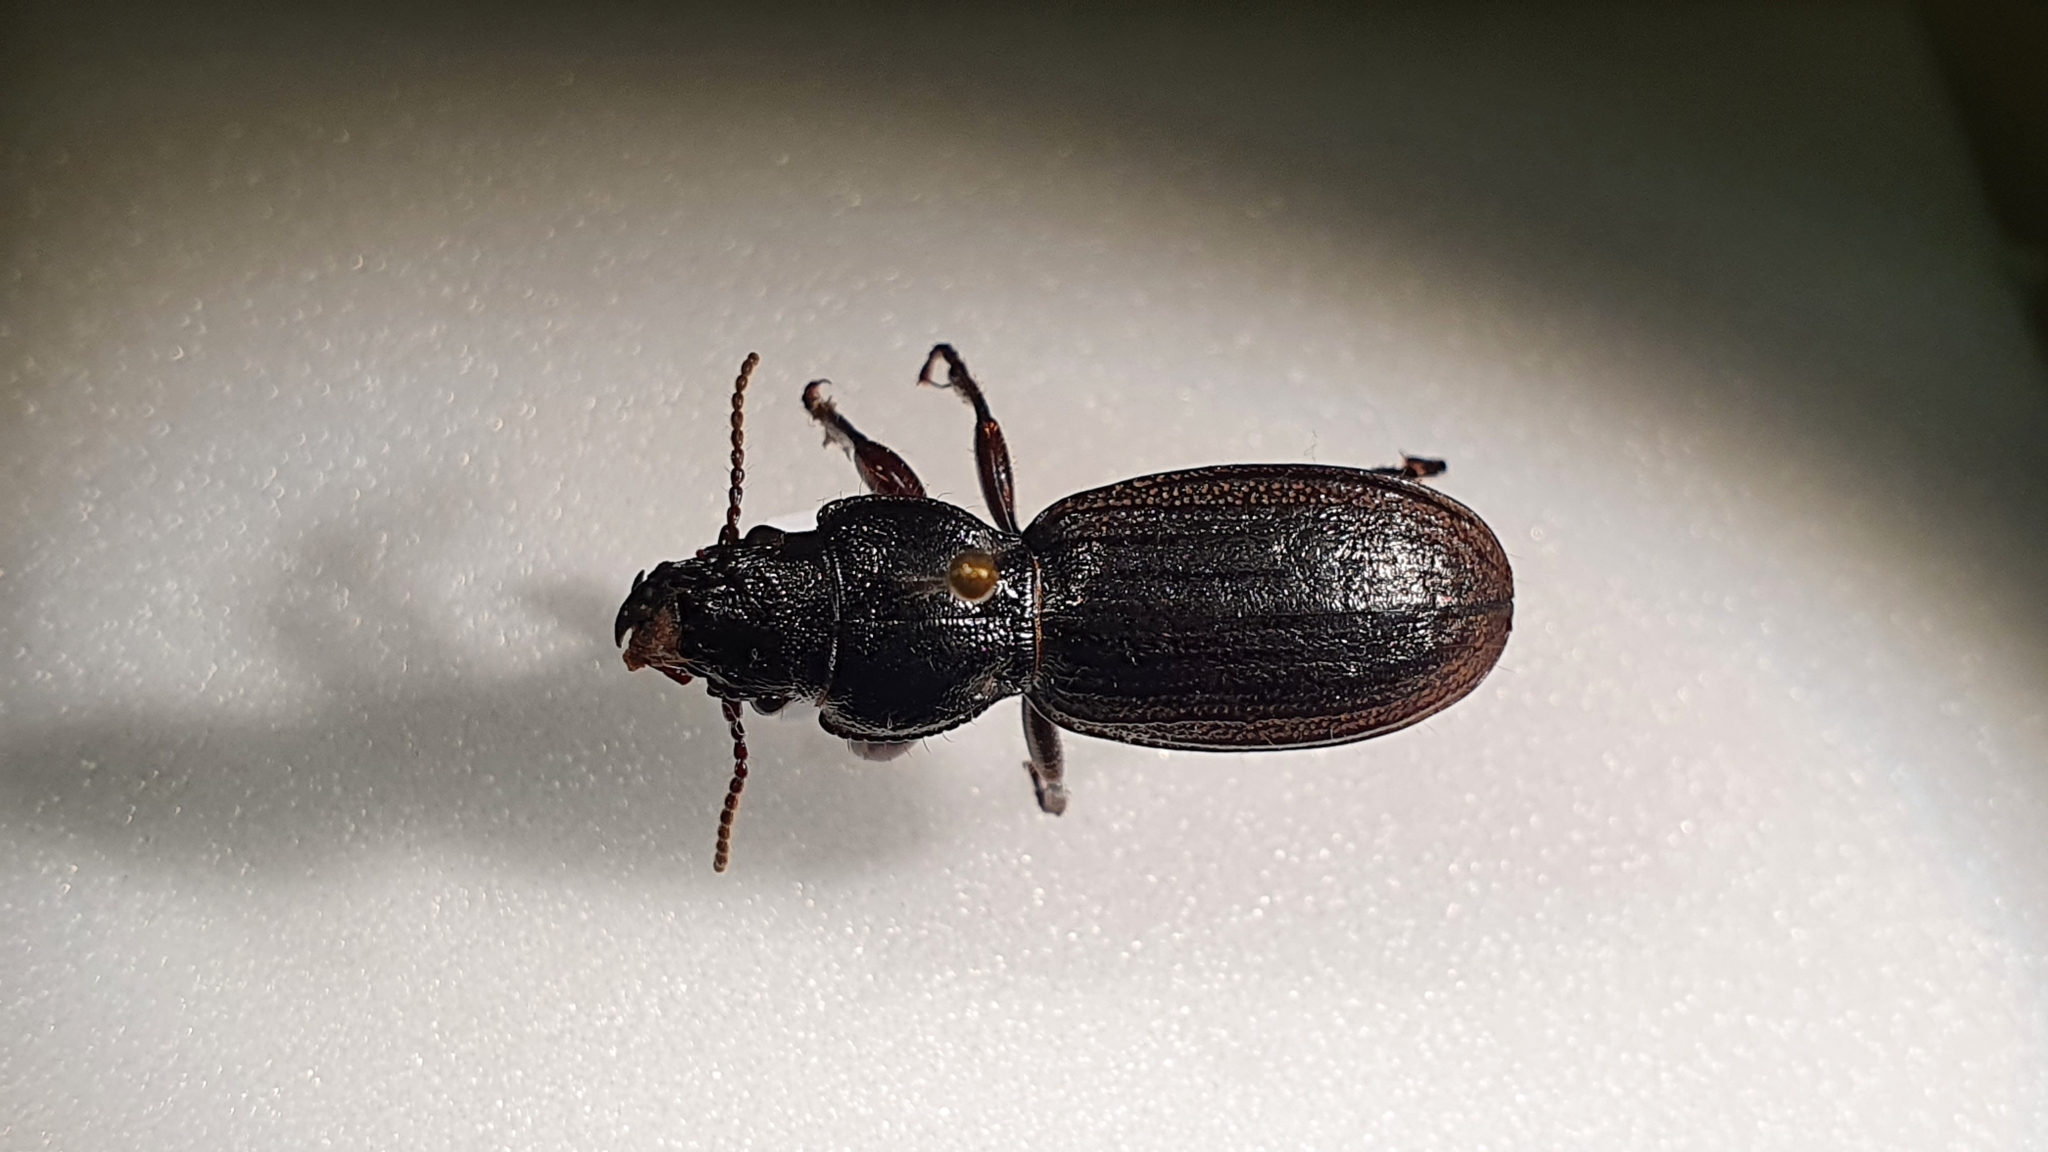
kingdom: Animalia
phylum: Arthropoda
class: Insecta
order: Coleoptera
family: Carabidae
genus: Mecodema
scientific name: Mecodema sculpturatum
